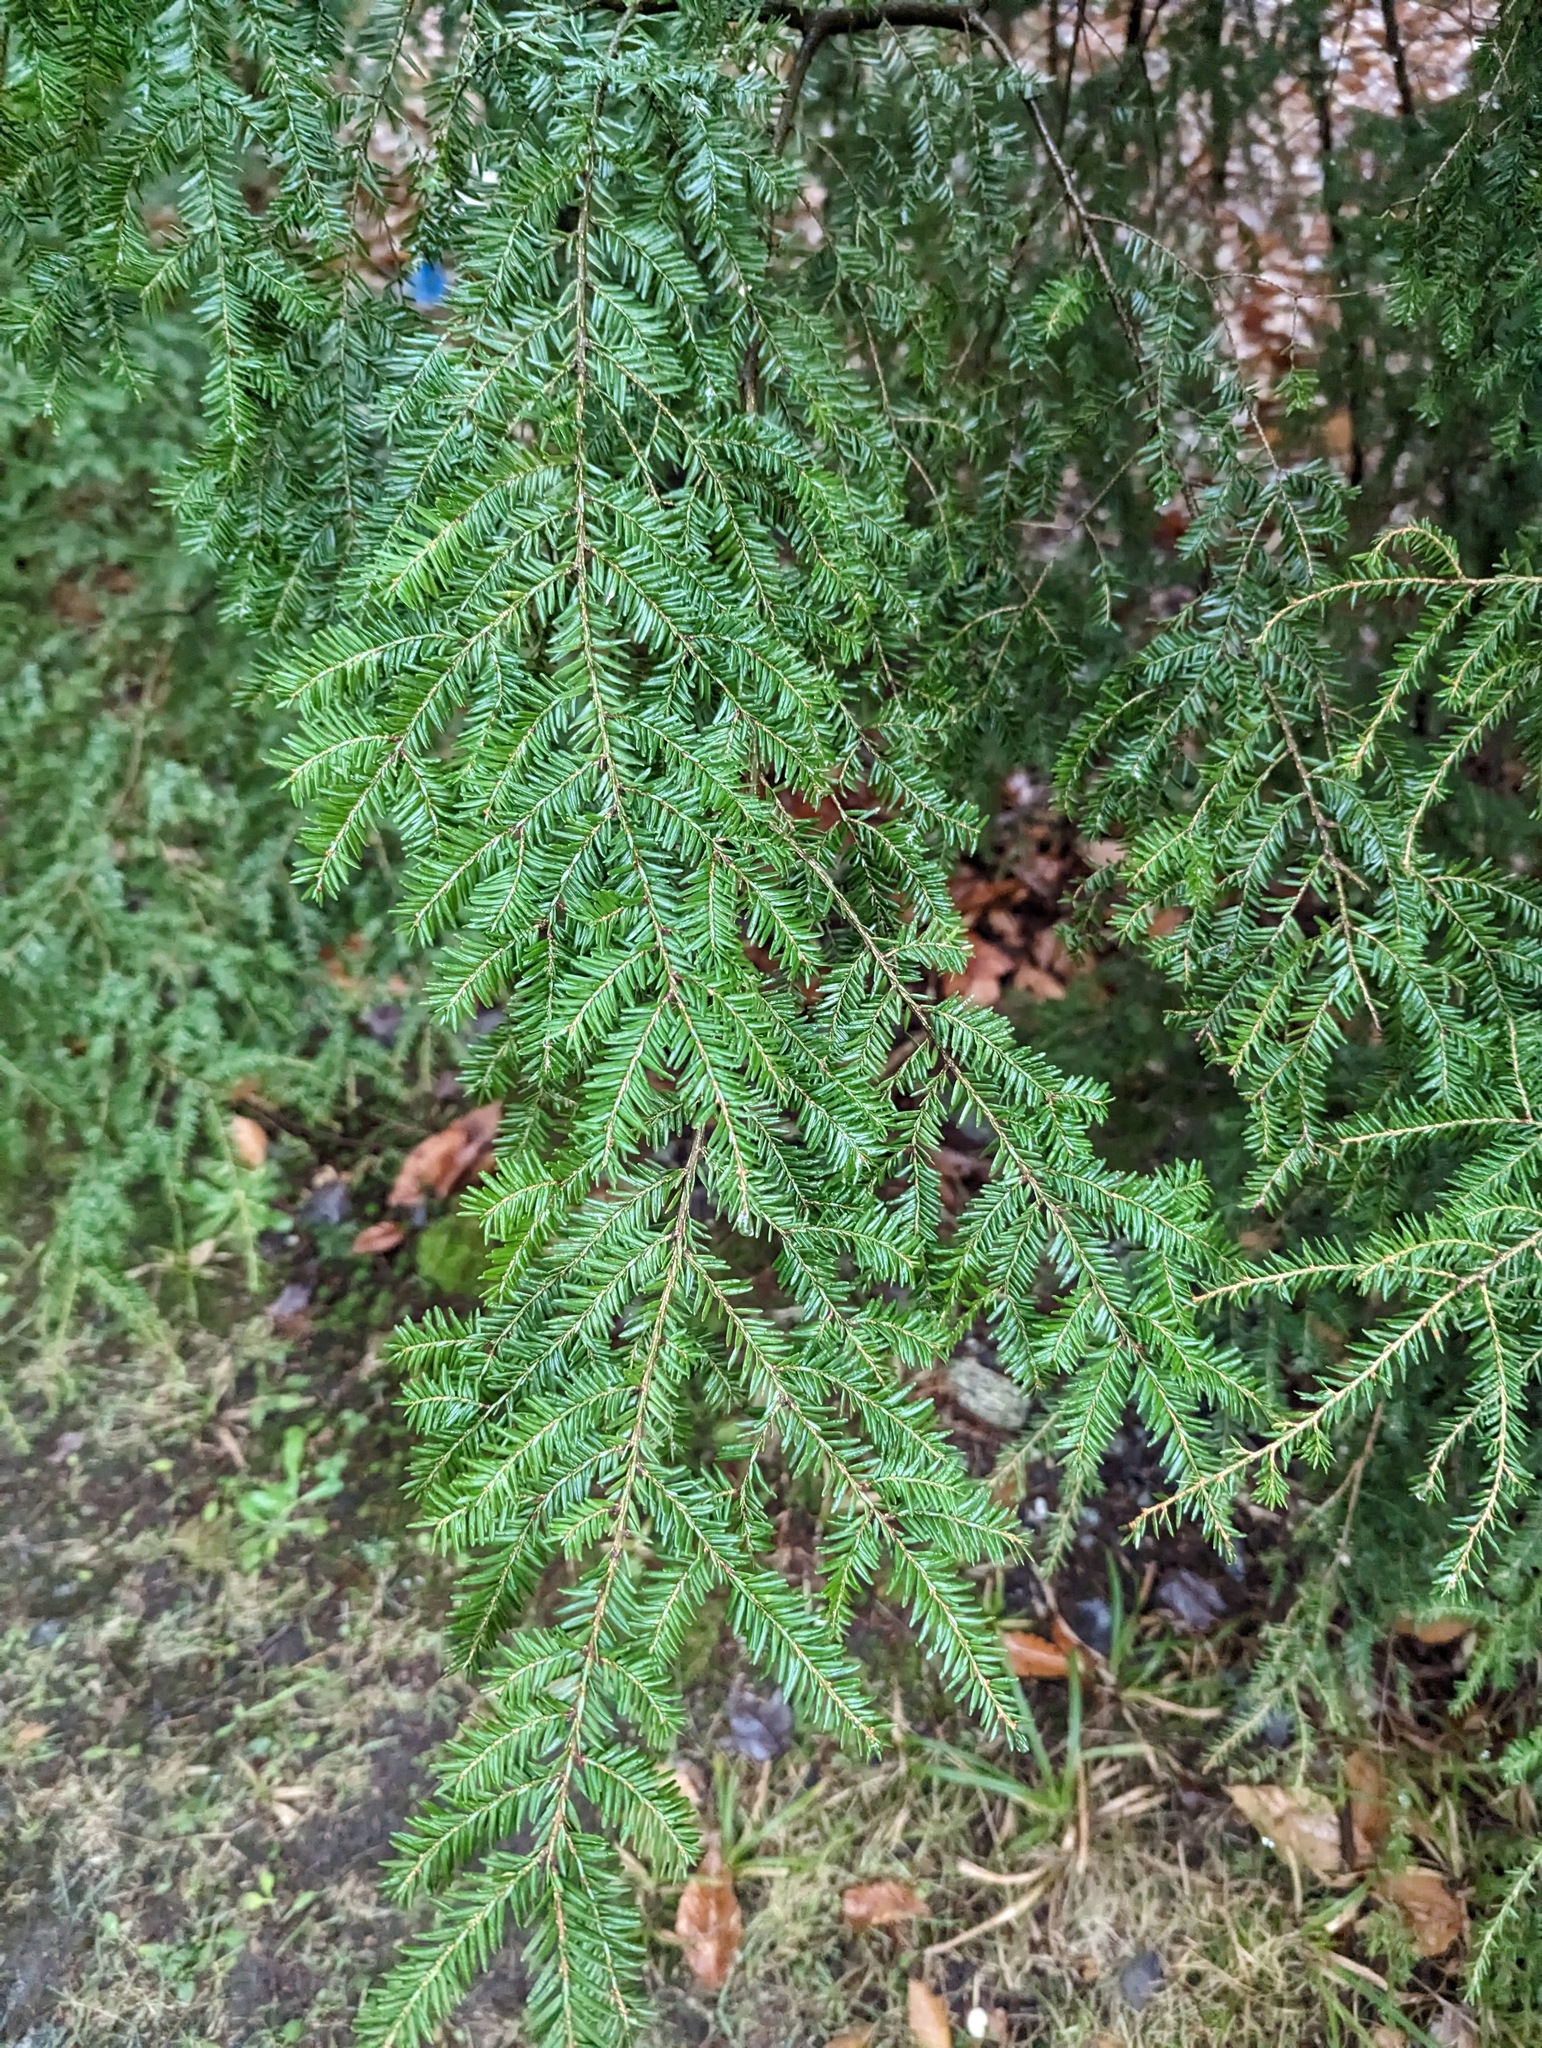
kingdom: Plantae
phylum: Tracheophyta
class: Pinopsida
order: Pinales
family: Pinaceae
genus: Tsuga
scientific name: Tsuga canadensis
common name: Eastern hemlock
